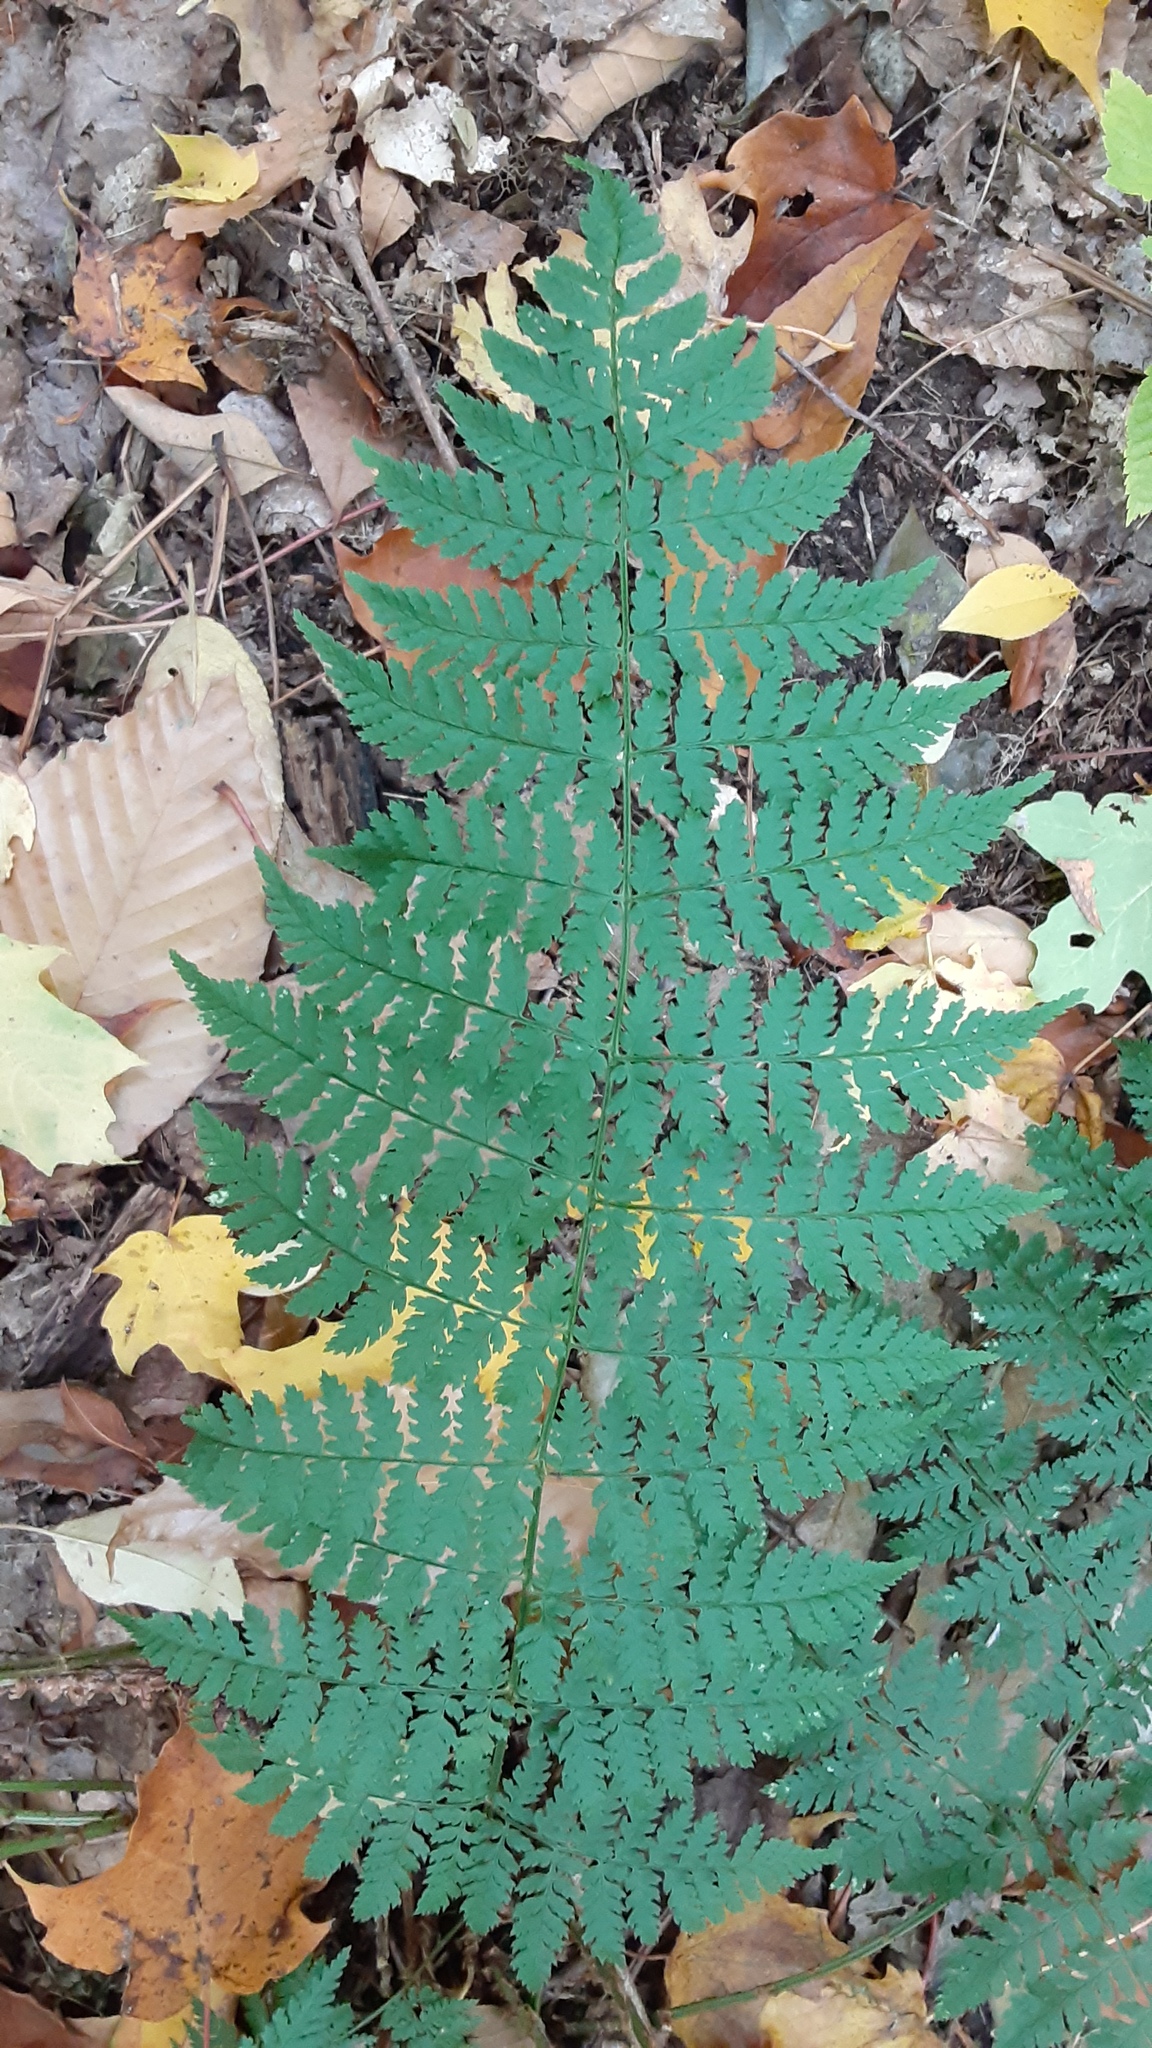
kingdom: Plantae
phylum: Tracheophyta
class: Polypodiopsida
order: Polypodiales
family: Dryopteridaceae
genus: Dryopteris
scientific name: Dryopteris intermedia
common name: Evergreen wood fern
